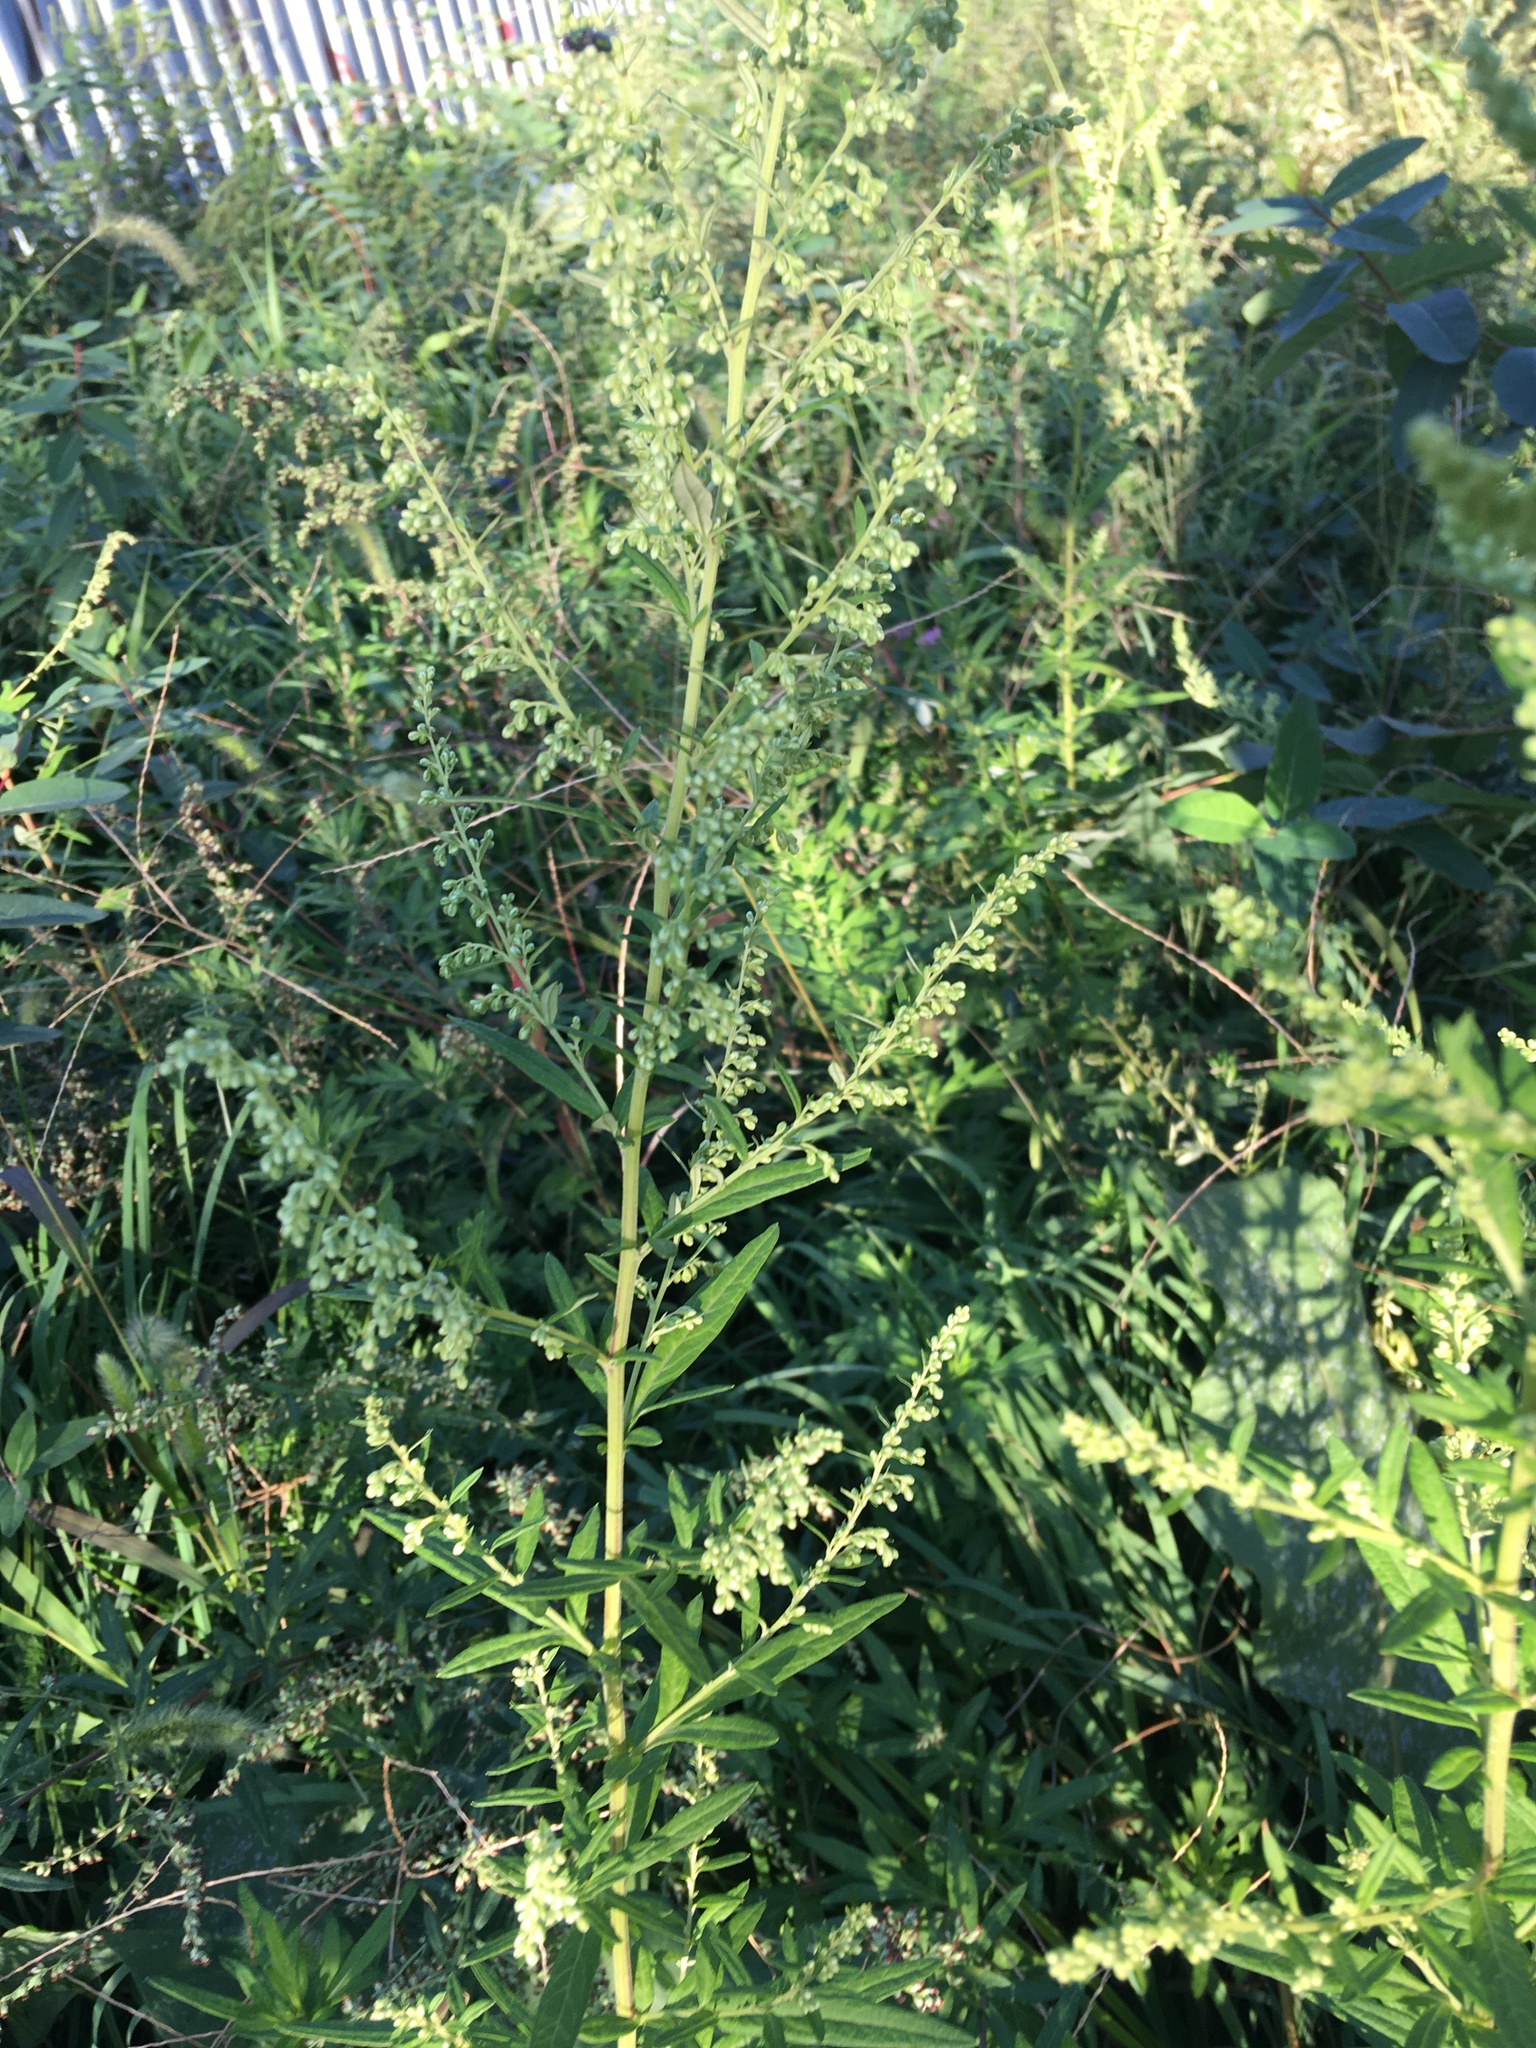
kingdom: Plantae
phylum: Tracheophyta
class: Magnoliopsida
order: Asterales
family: Asteraceae
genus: Artemisia
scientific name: Artemisia vulgaris
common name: Mugwort
